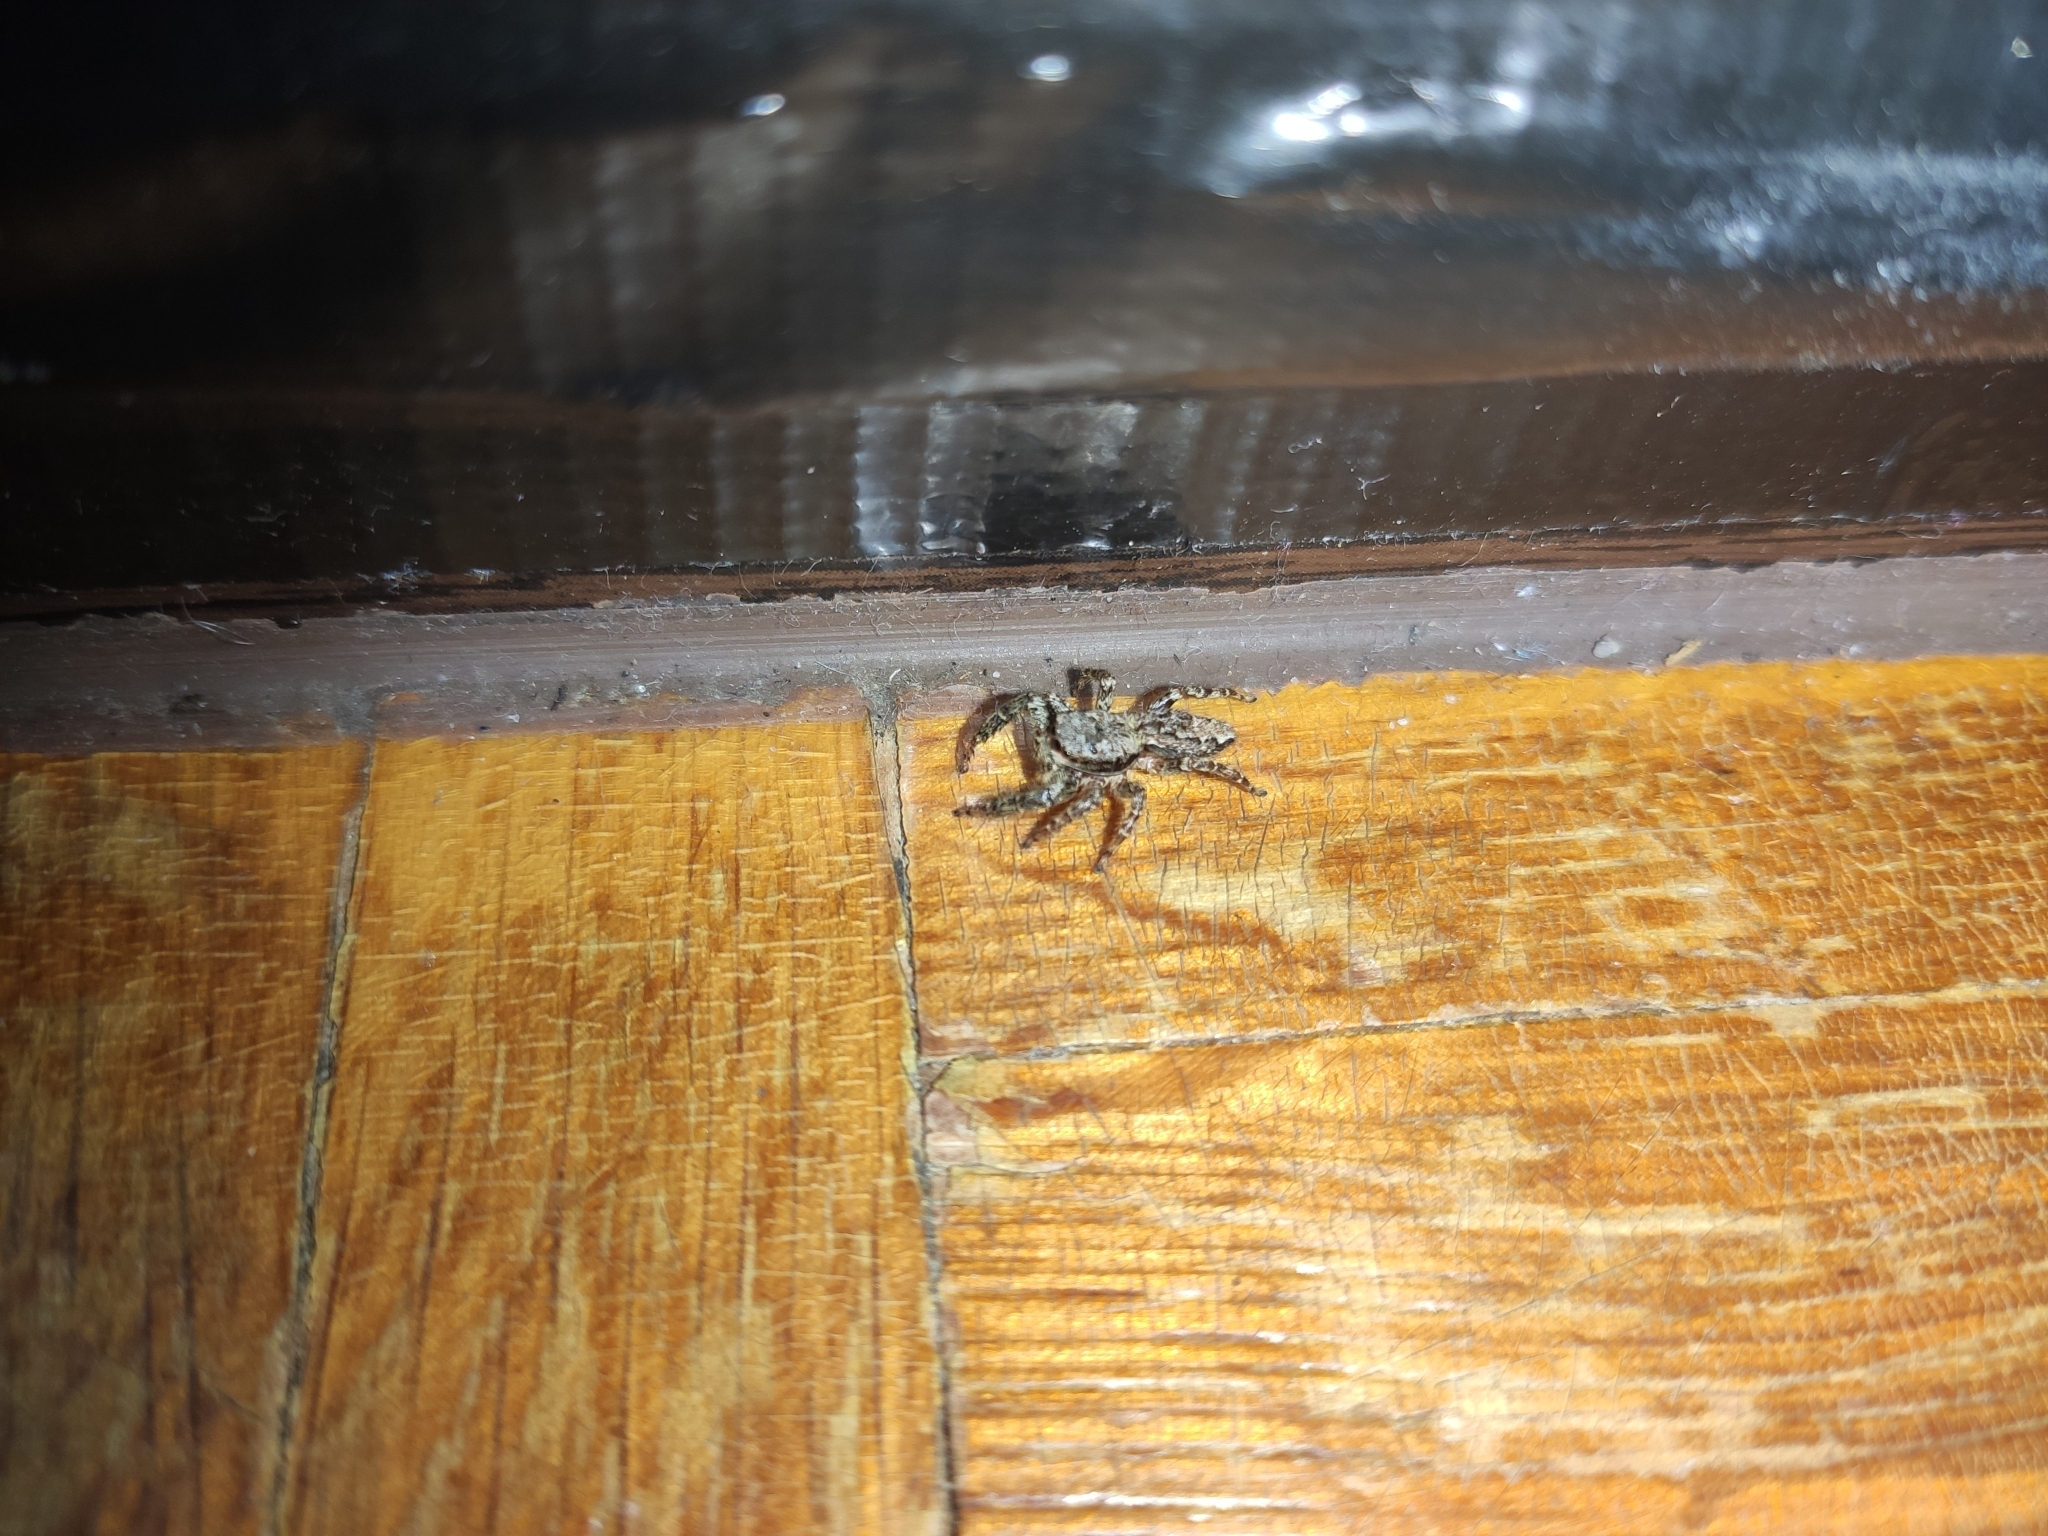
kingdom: Animalia
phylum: Arthropoda
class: Arachnida
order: Araneae
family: Salticidae
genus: Marpissa
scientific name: Marpissa muscosa
